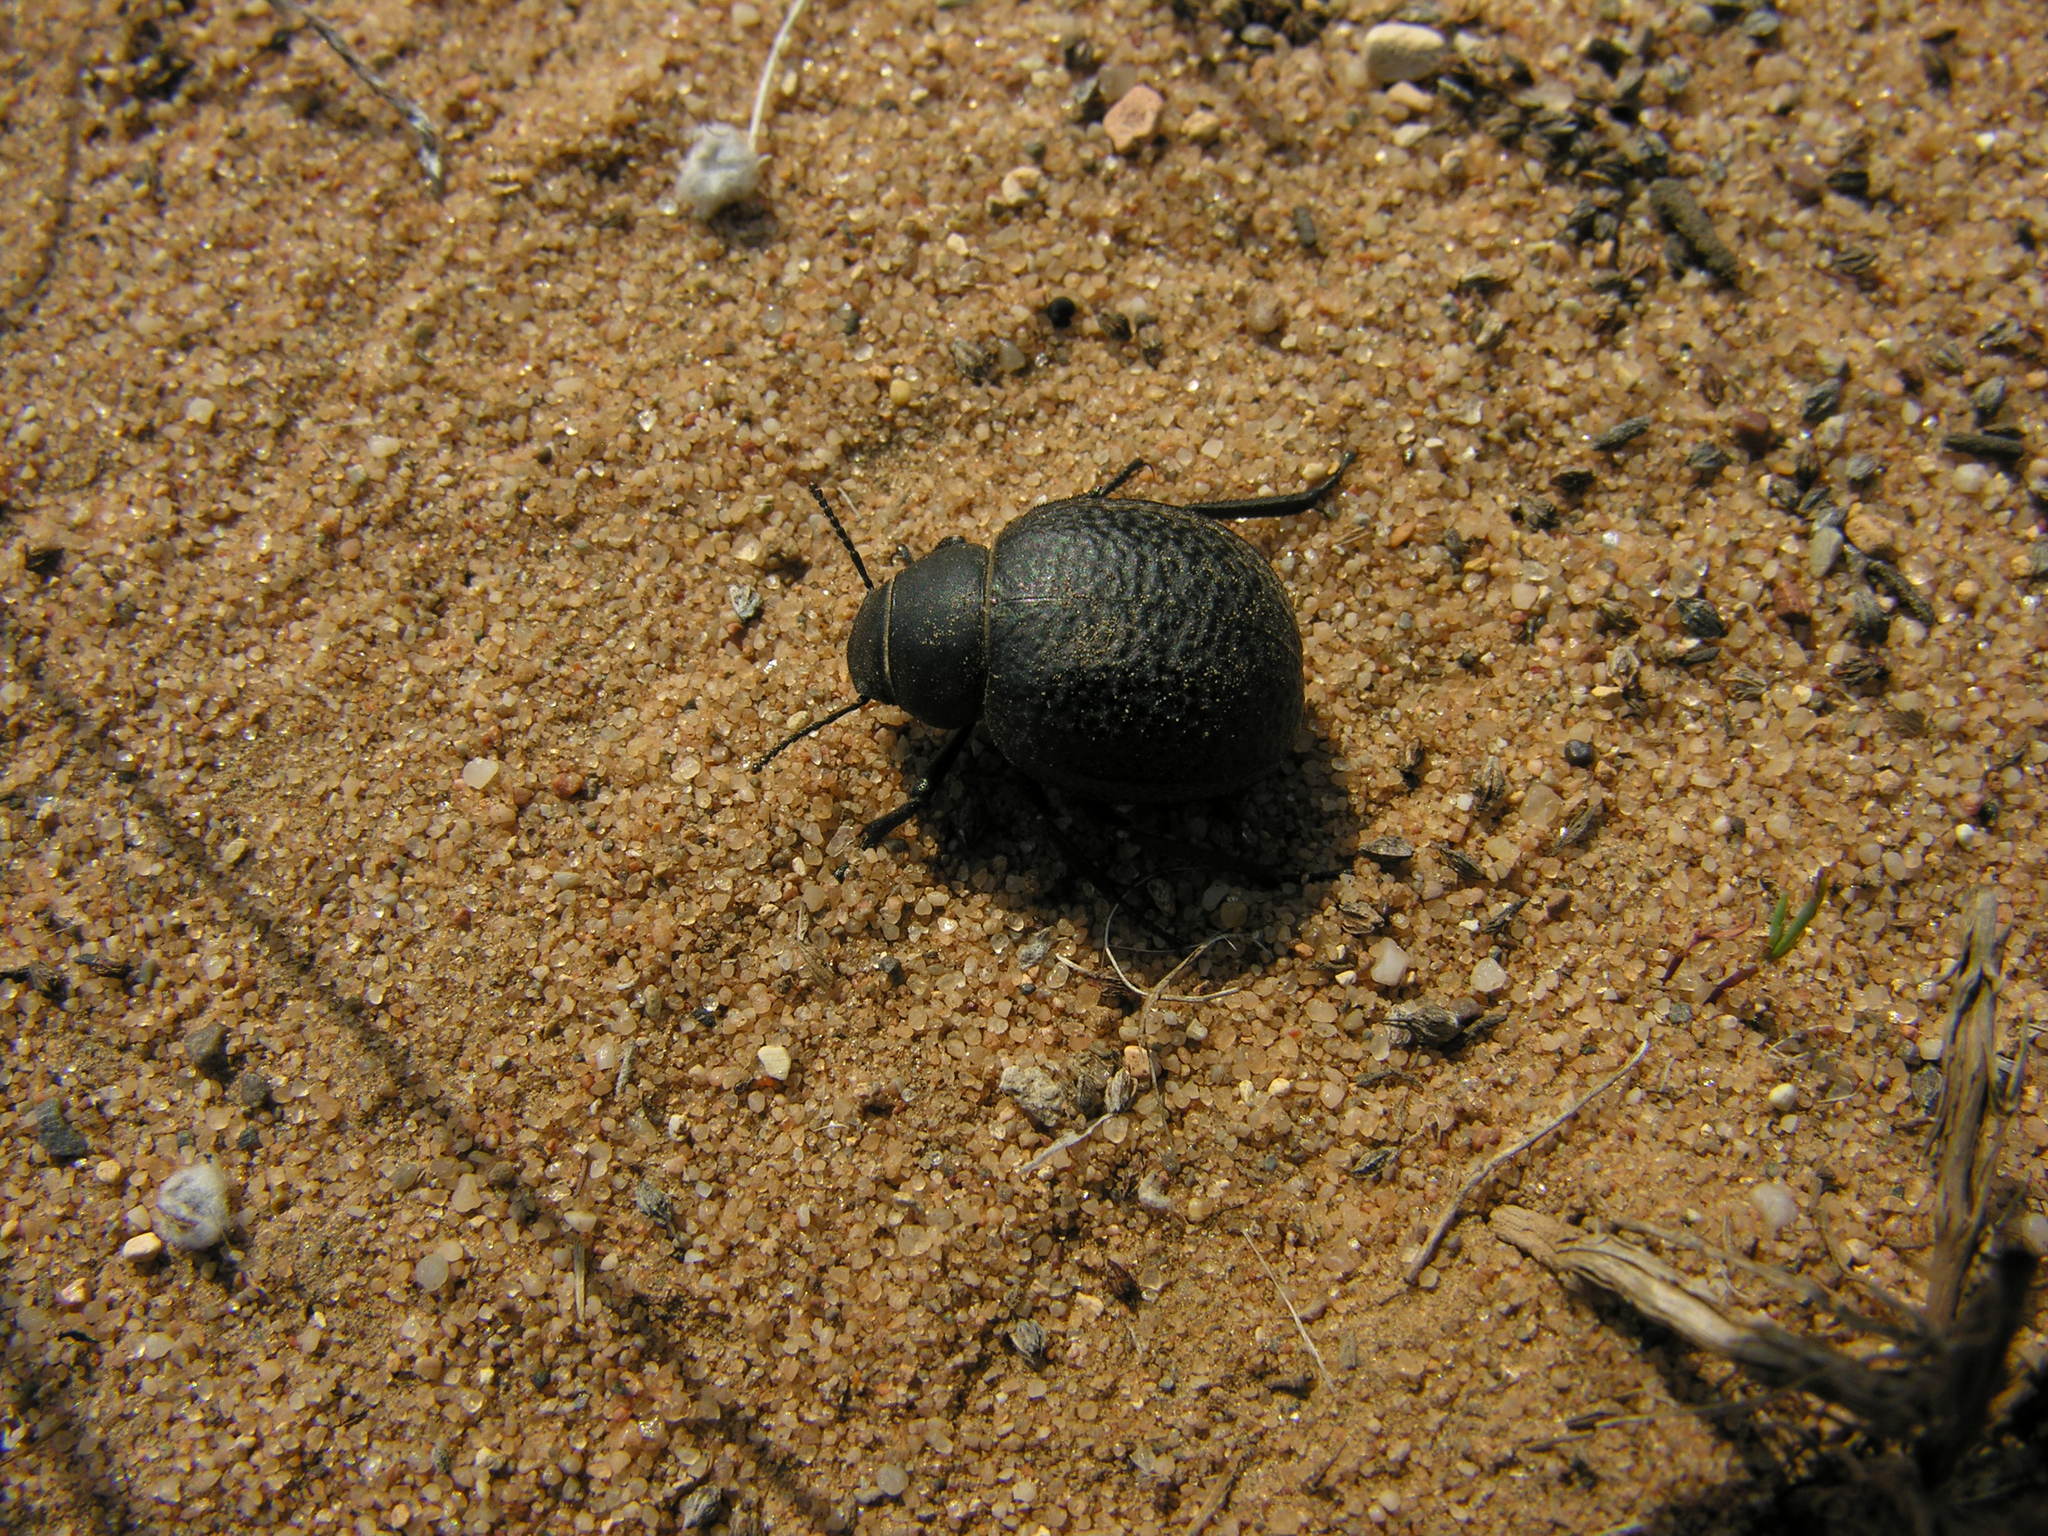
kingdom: Animalia
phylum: Arthropoda
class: Insecta
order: Coleoptera
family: Tenebrionidae
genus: Pimelia
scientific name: Pimelia subglobosa
